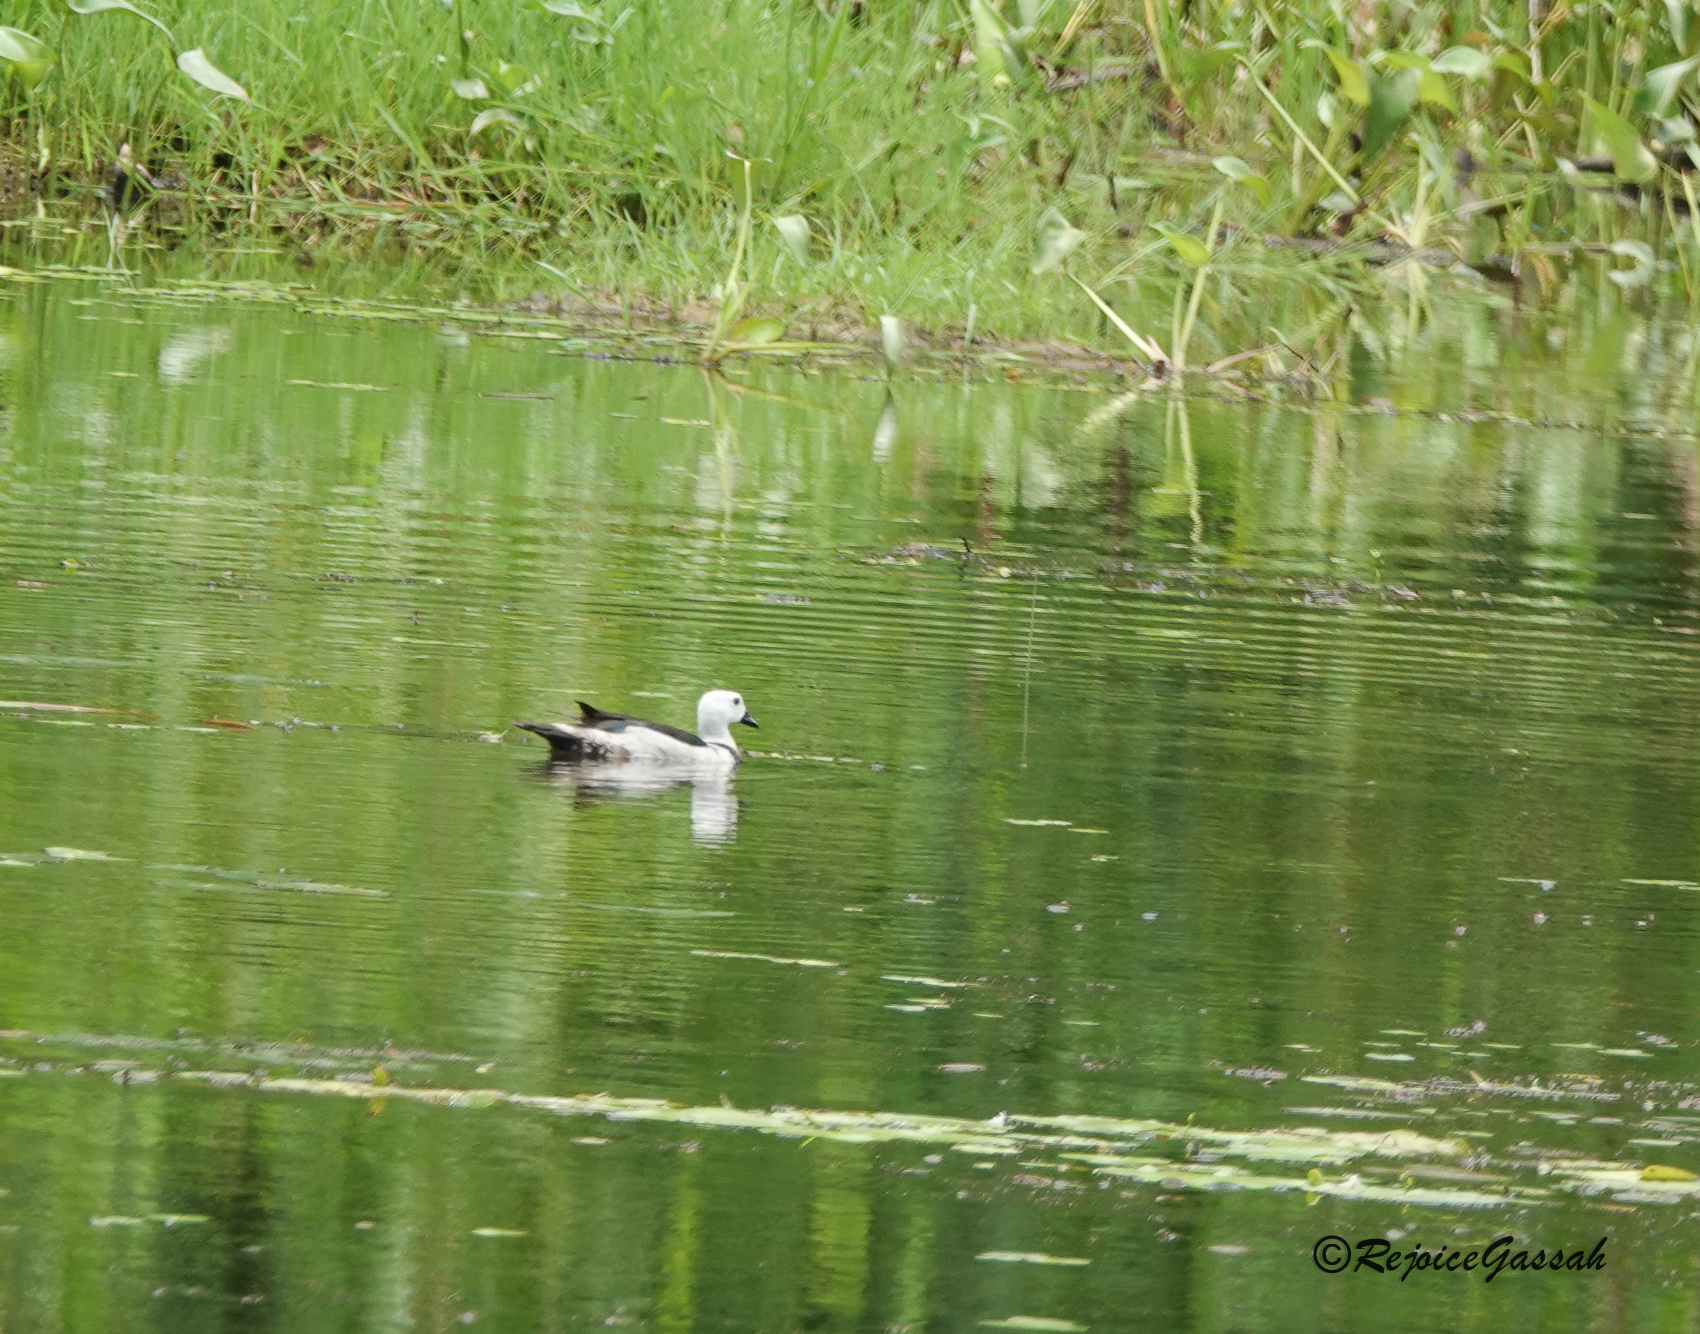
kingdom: Animalia
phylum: Chordata
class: Aves
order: Anseriformes
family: Anatidae
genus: Nettapus
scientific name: Nettapus coromandelianus
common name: Cotton pygmy-goose
